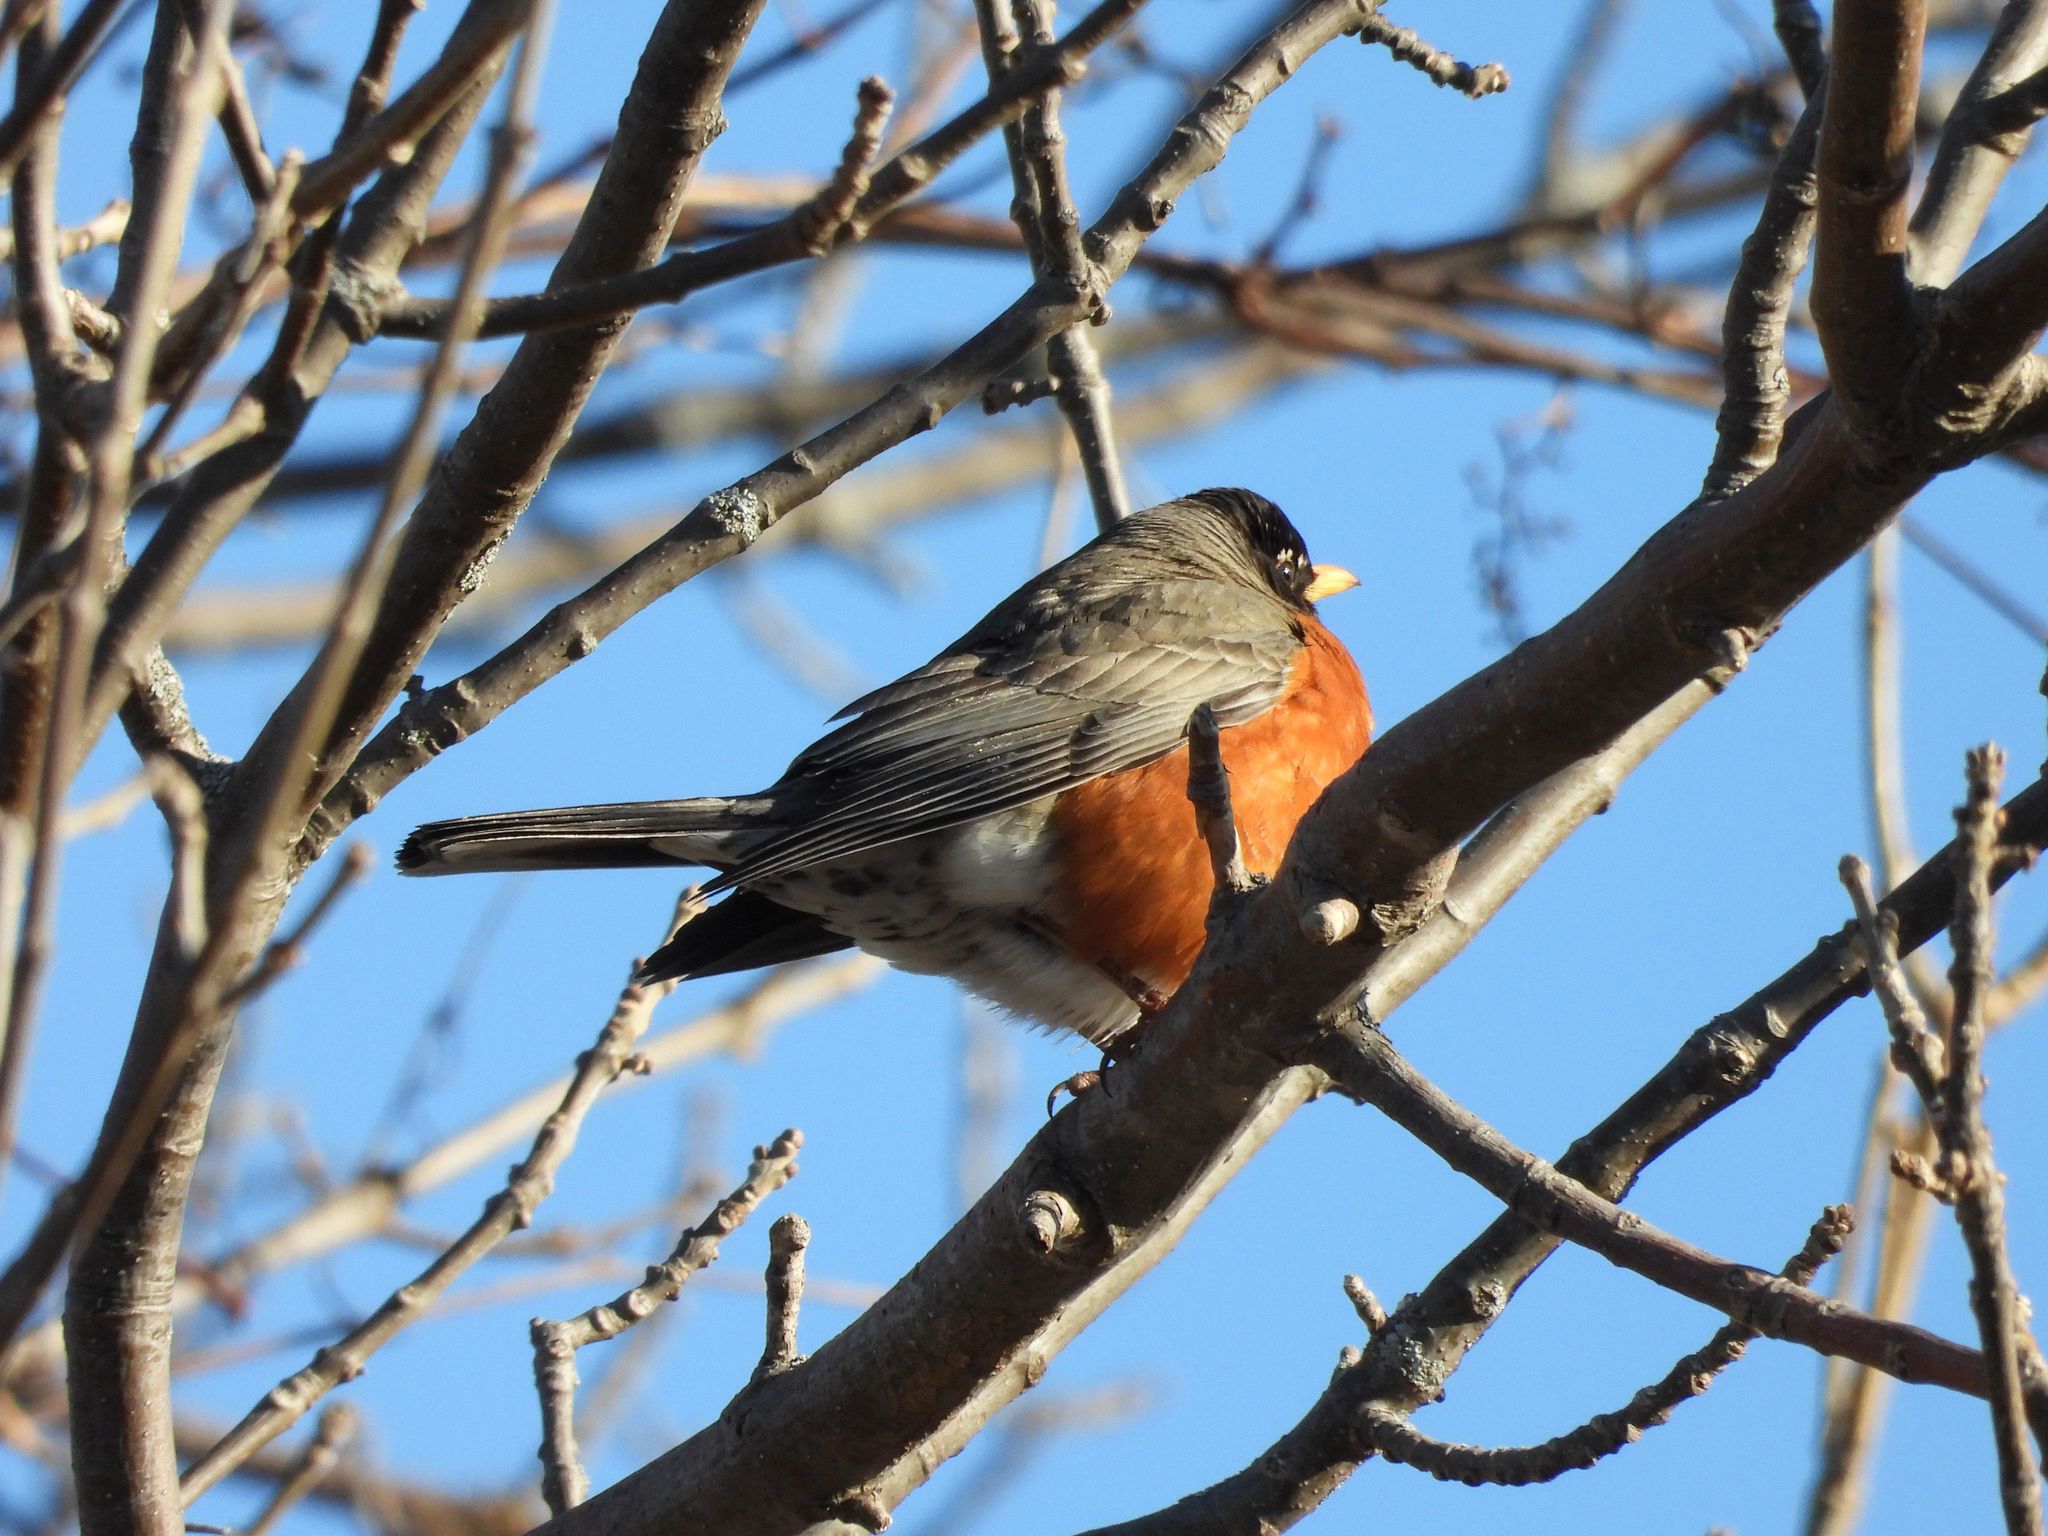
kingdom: Animalia
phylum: Chordata
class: Aves
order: Passeriformes
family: Turdidae
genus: Turdus
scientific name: Turdus migratorius
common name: American robin
